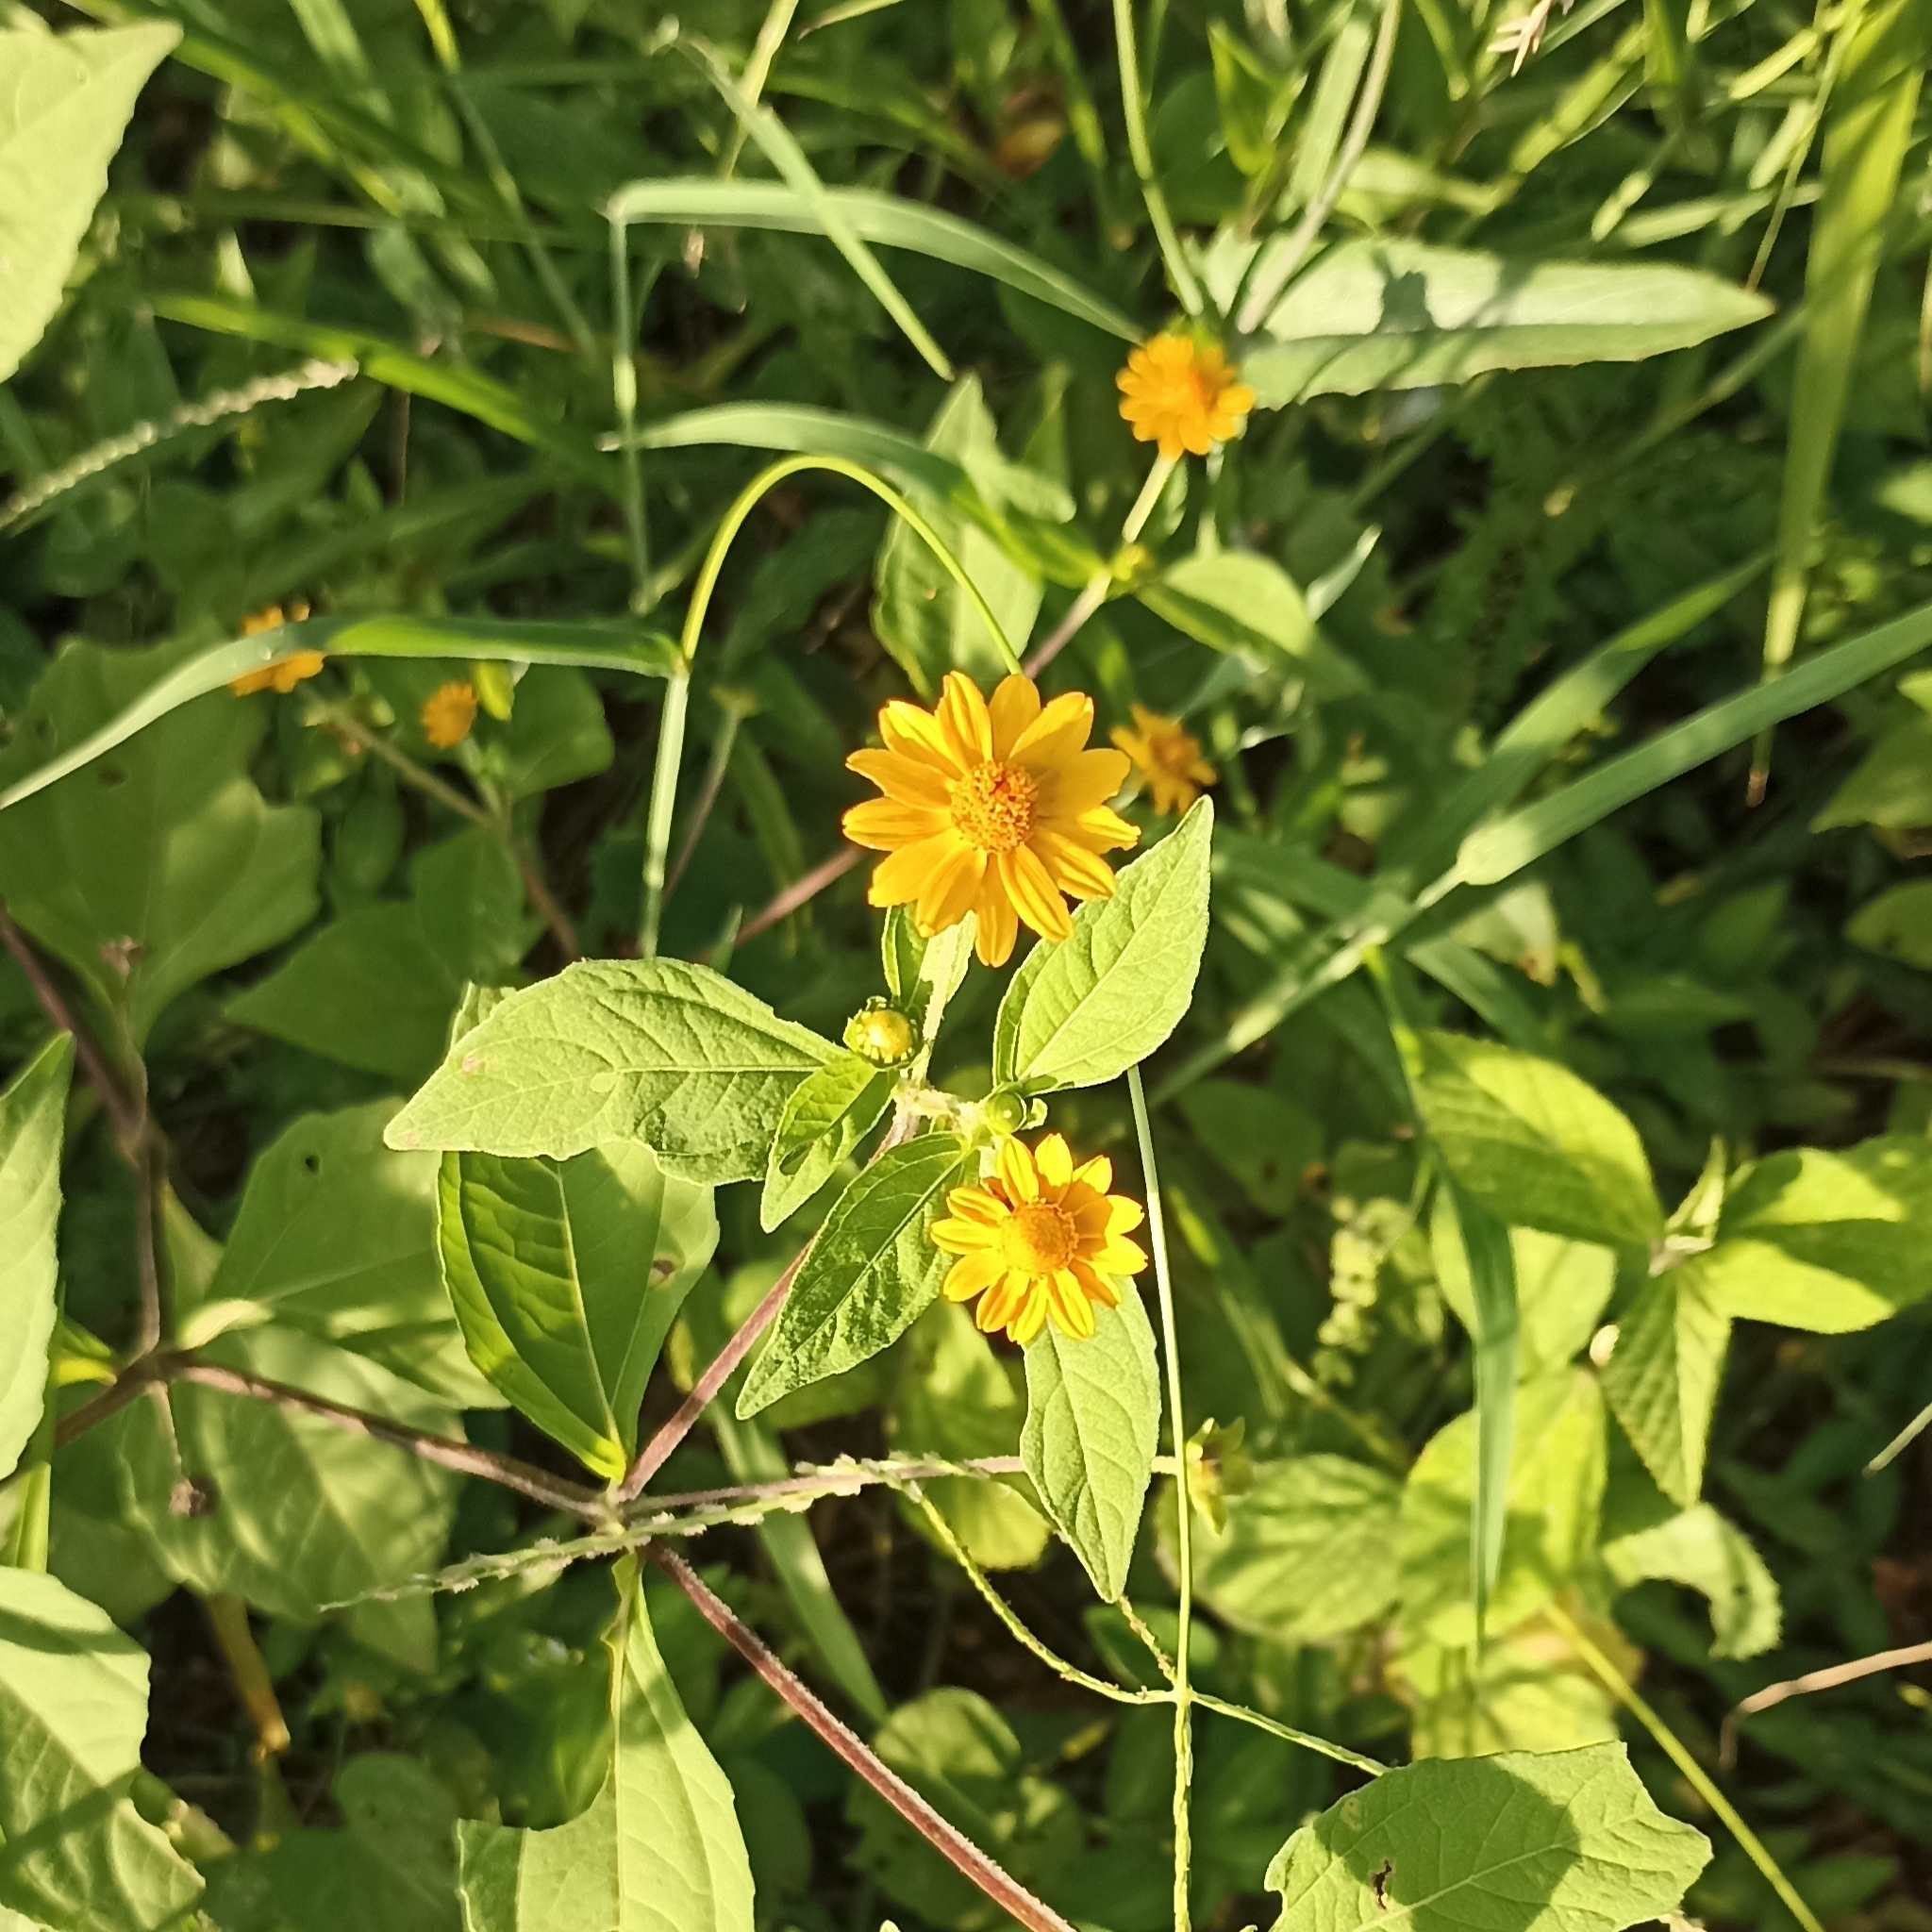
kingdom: Plantae
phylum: Tracheophyta
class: Magnoliopsida
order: Asterales
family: Asteraceae
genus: Melampodium
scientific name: Melampodium divaricatum
